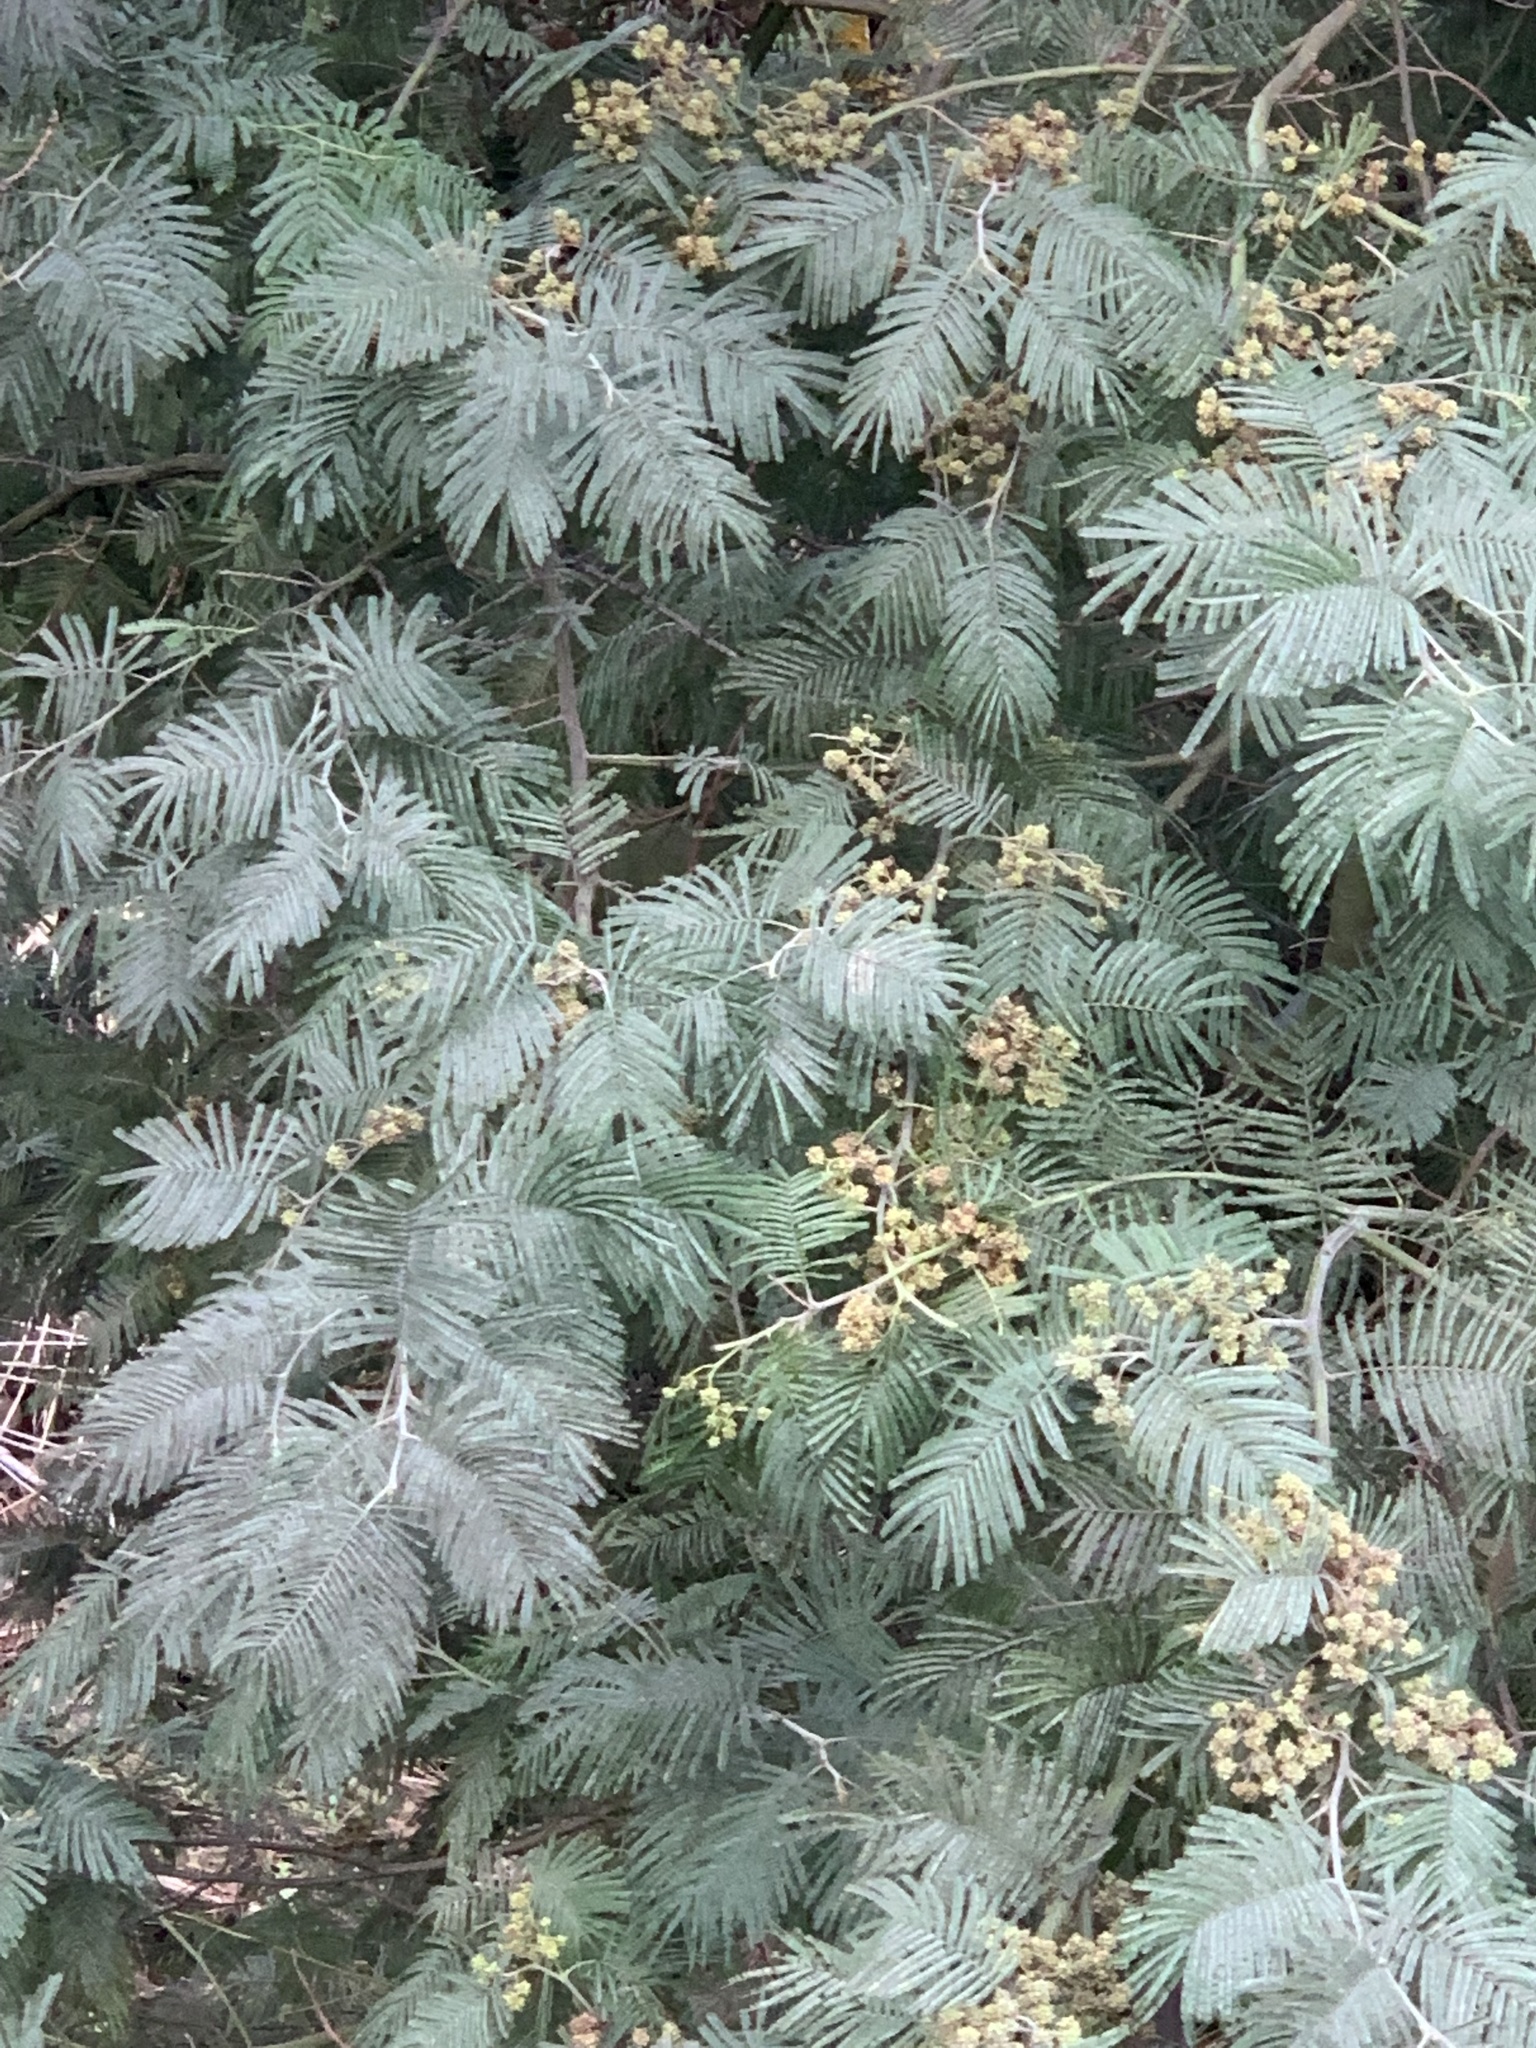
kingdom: Animalia
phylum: Arthropoda
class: Insecta
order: Diptera
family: Cecidomyiidae
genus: Dasineura
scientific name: Dasineura rubiformis
